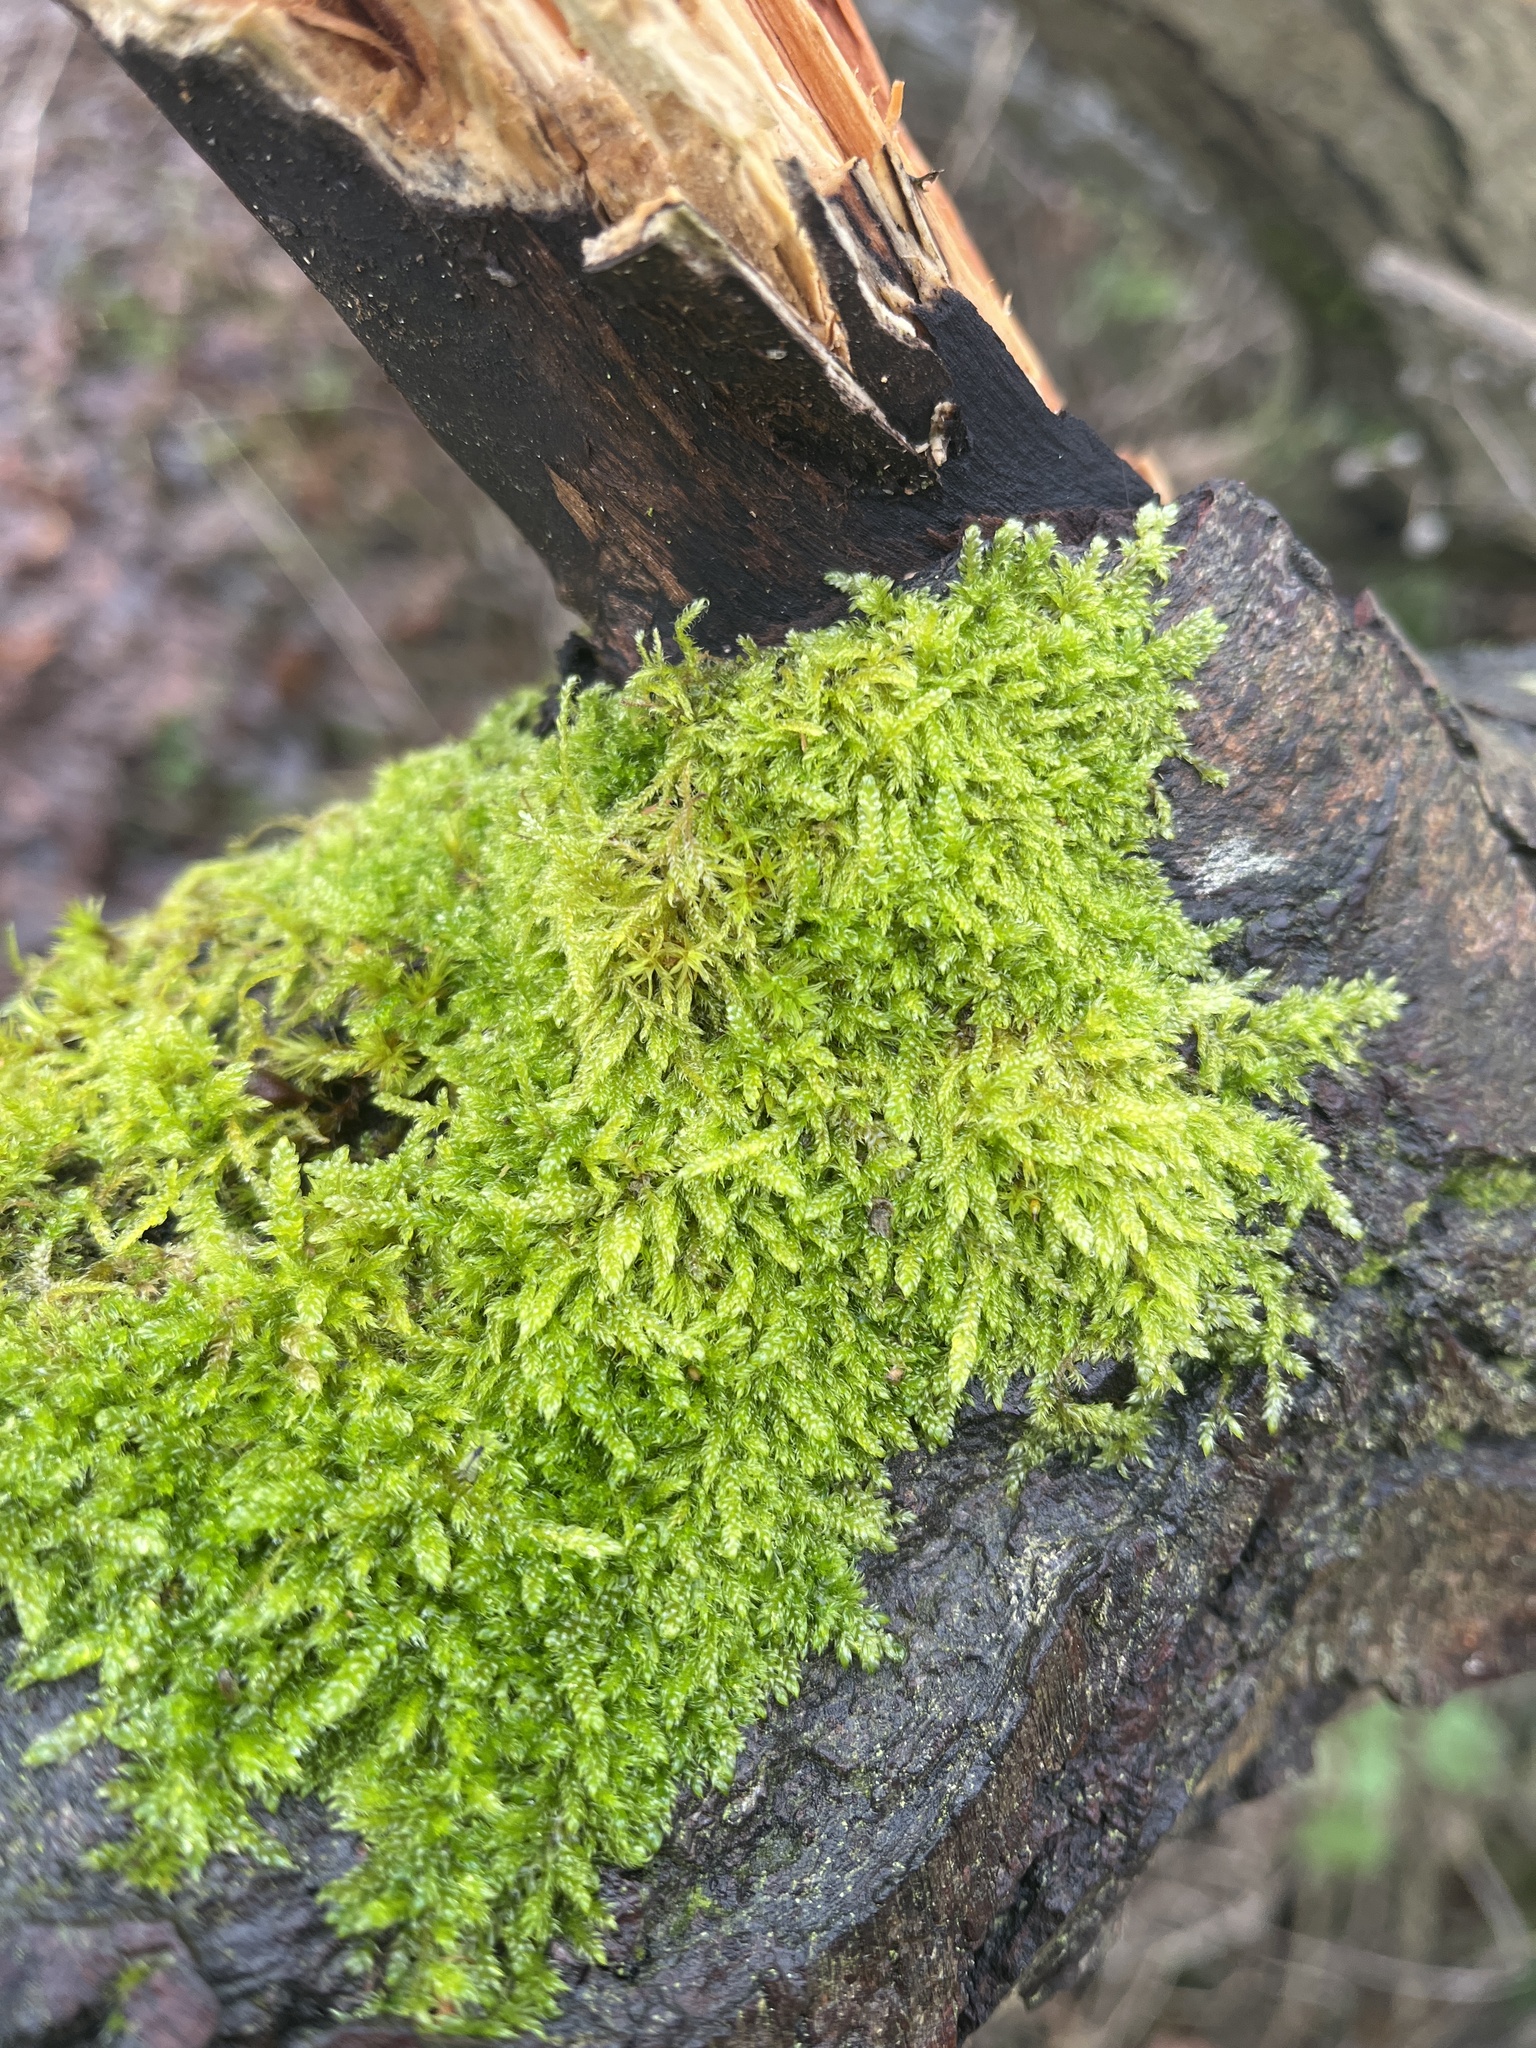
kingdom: Plantae
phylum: Bryophyta
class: Bryopsida
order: Hypnales
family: Hypnaceae
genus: Hypnum
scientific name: Hypnum cupressiforme
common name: Cypress-leaved plait-moss
